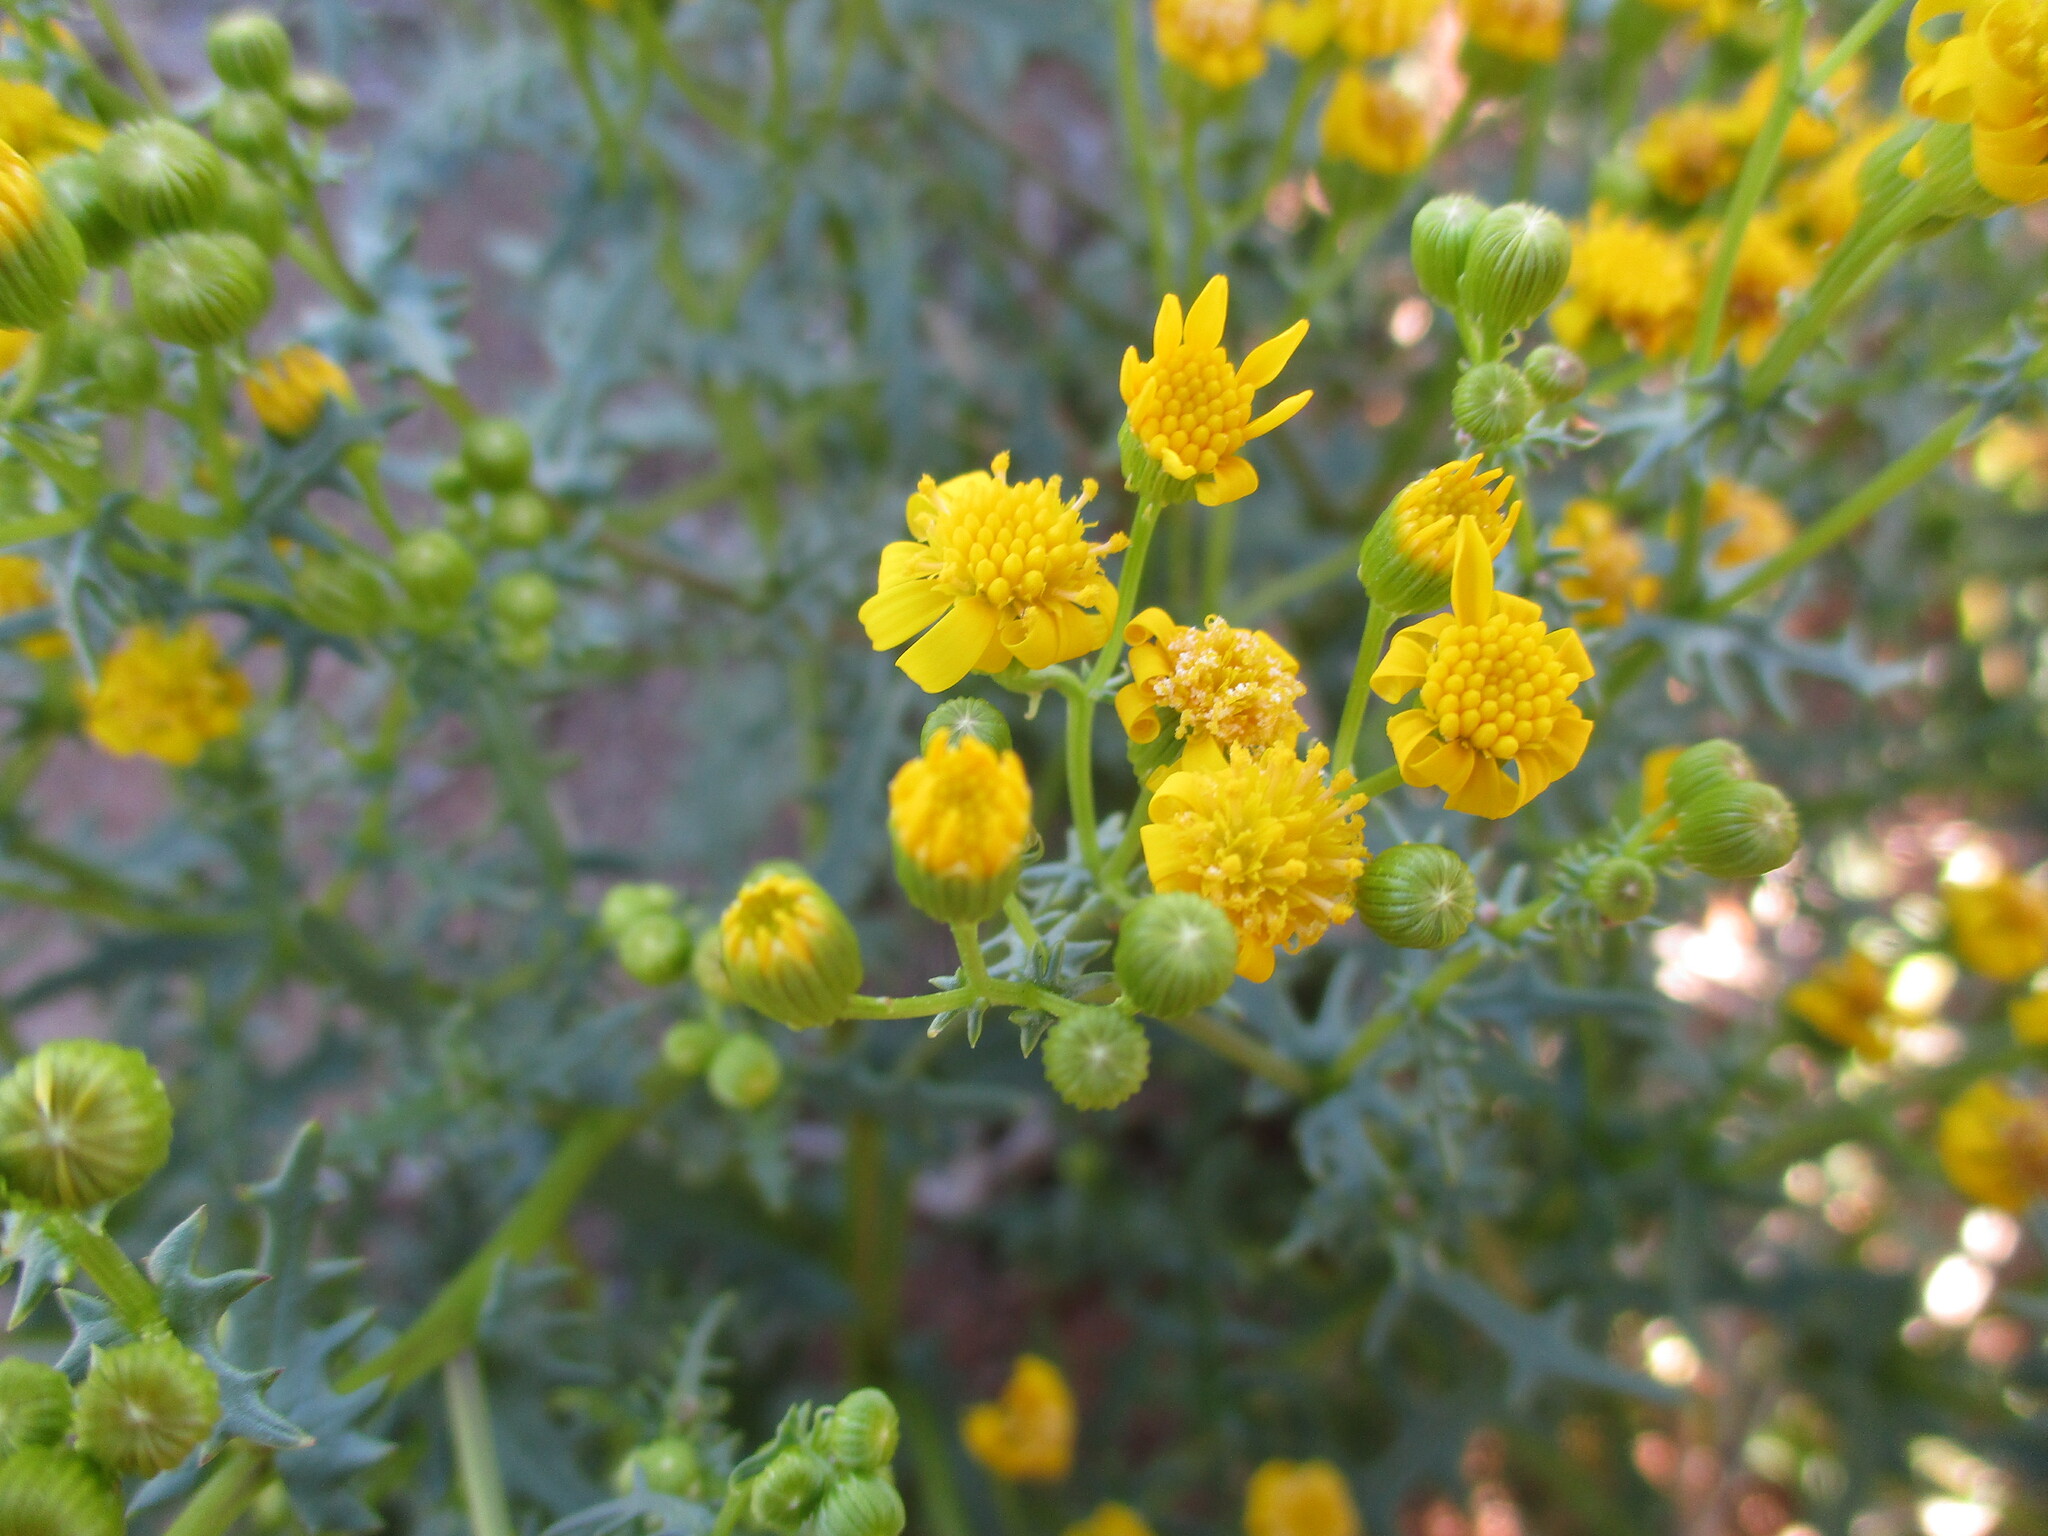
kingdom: Plantae
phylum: Tracheophyta
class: Magnoliopsida
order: Asterales
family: Asteraceae
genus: Senecio
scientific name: Senecio piptocoma
